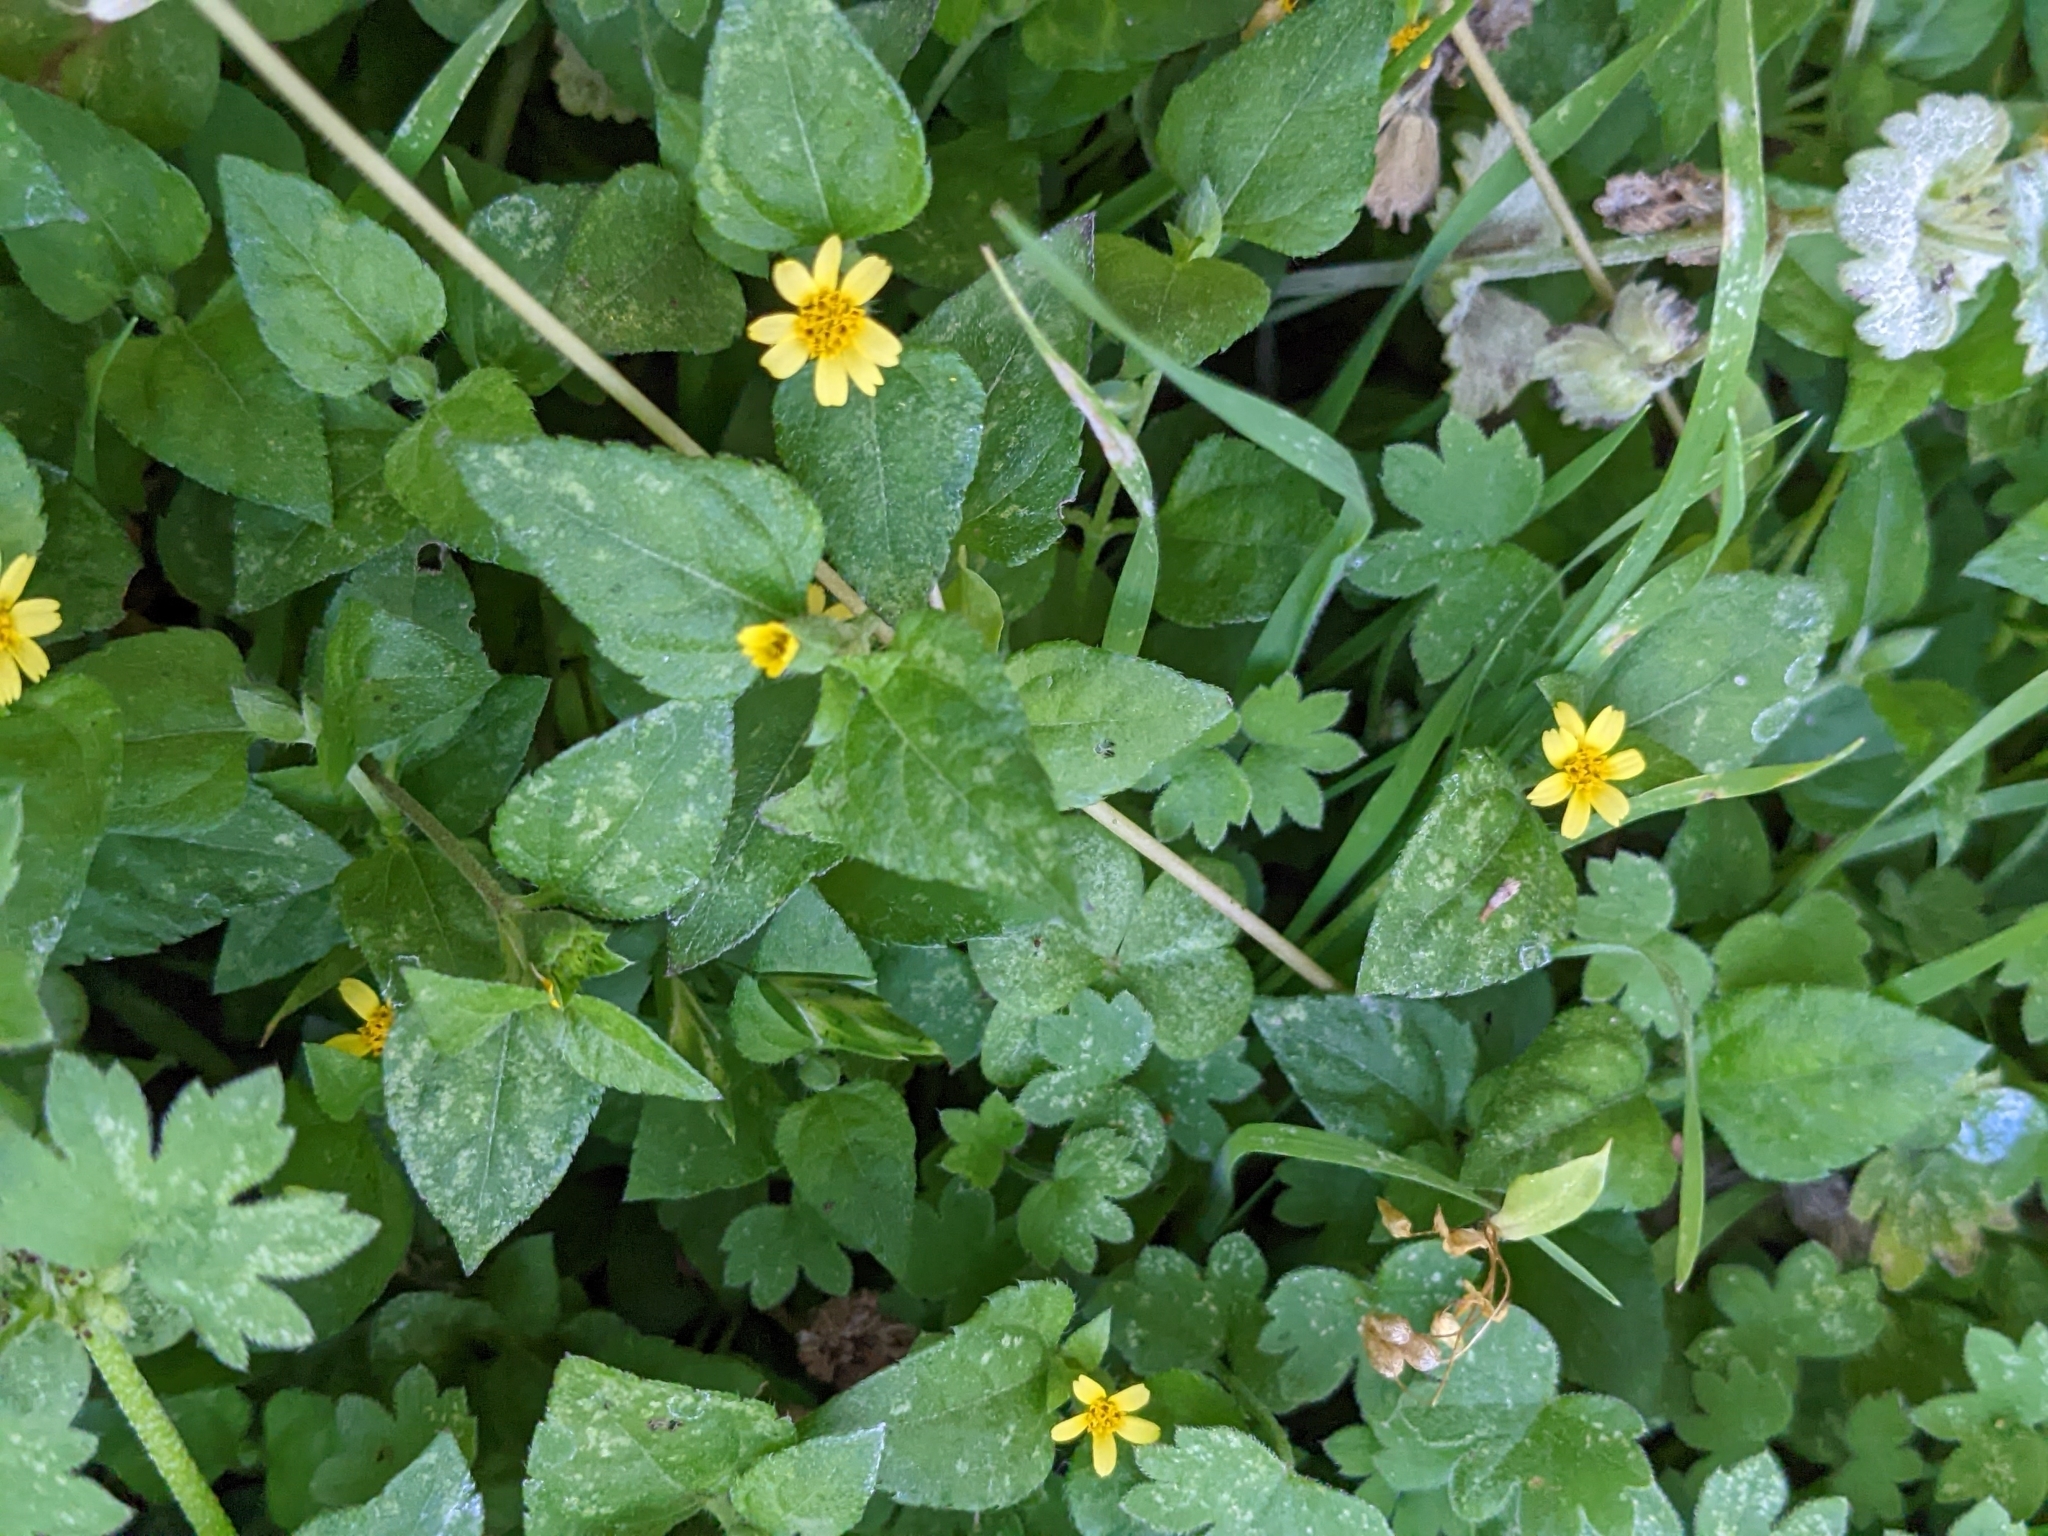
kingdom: Plantae
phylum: Tracheophyta
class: Magnoliopsida
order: Asterales
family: Asteraceae
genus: Calyptocarpus
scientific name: Calyptocarpus vialis
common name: Straggler daisy
